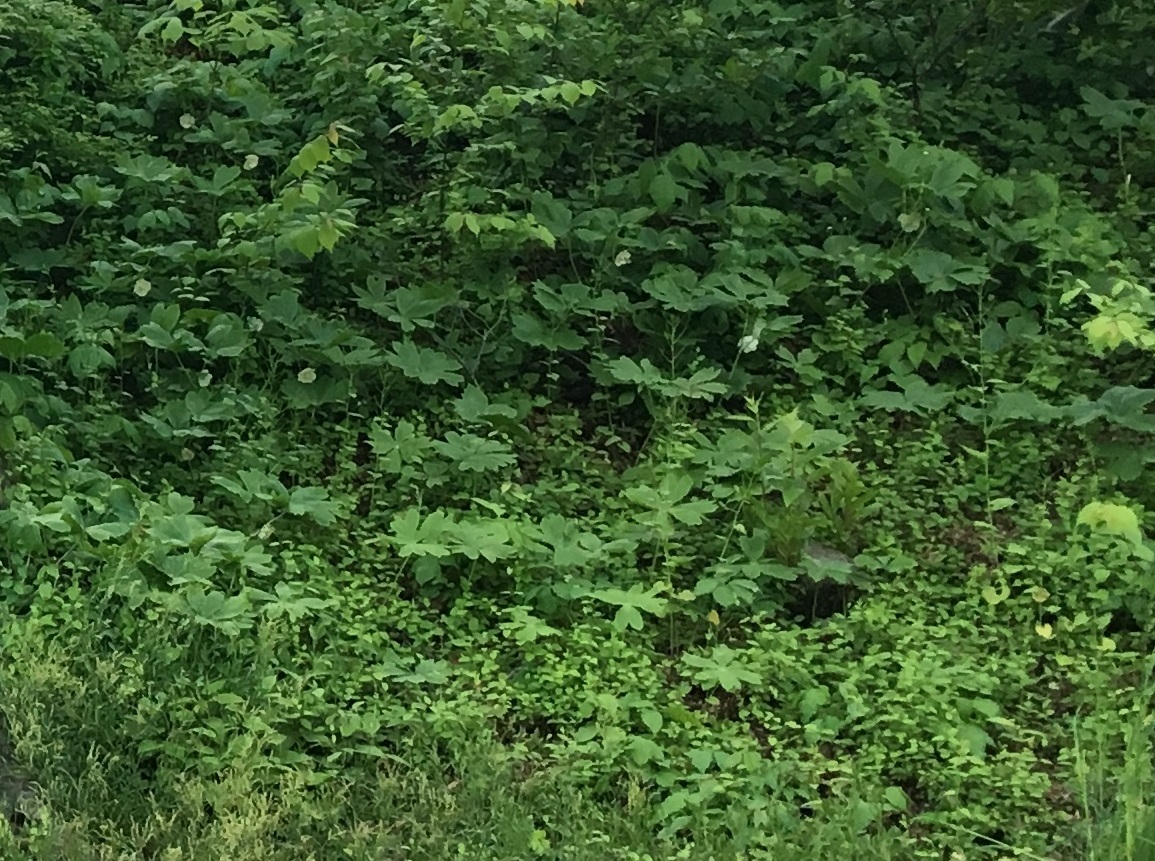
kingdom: Plantae
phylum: Tracheophyta
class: Magnoliopsida
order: Ranunculales
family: Berberidaceae
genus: Podophyllum
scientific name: Podophyllum peltatum
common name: Wild mandrake
